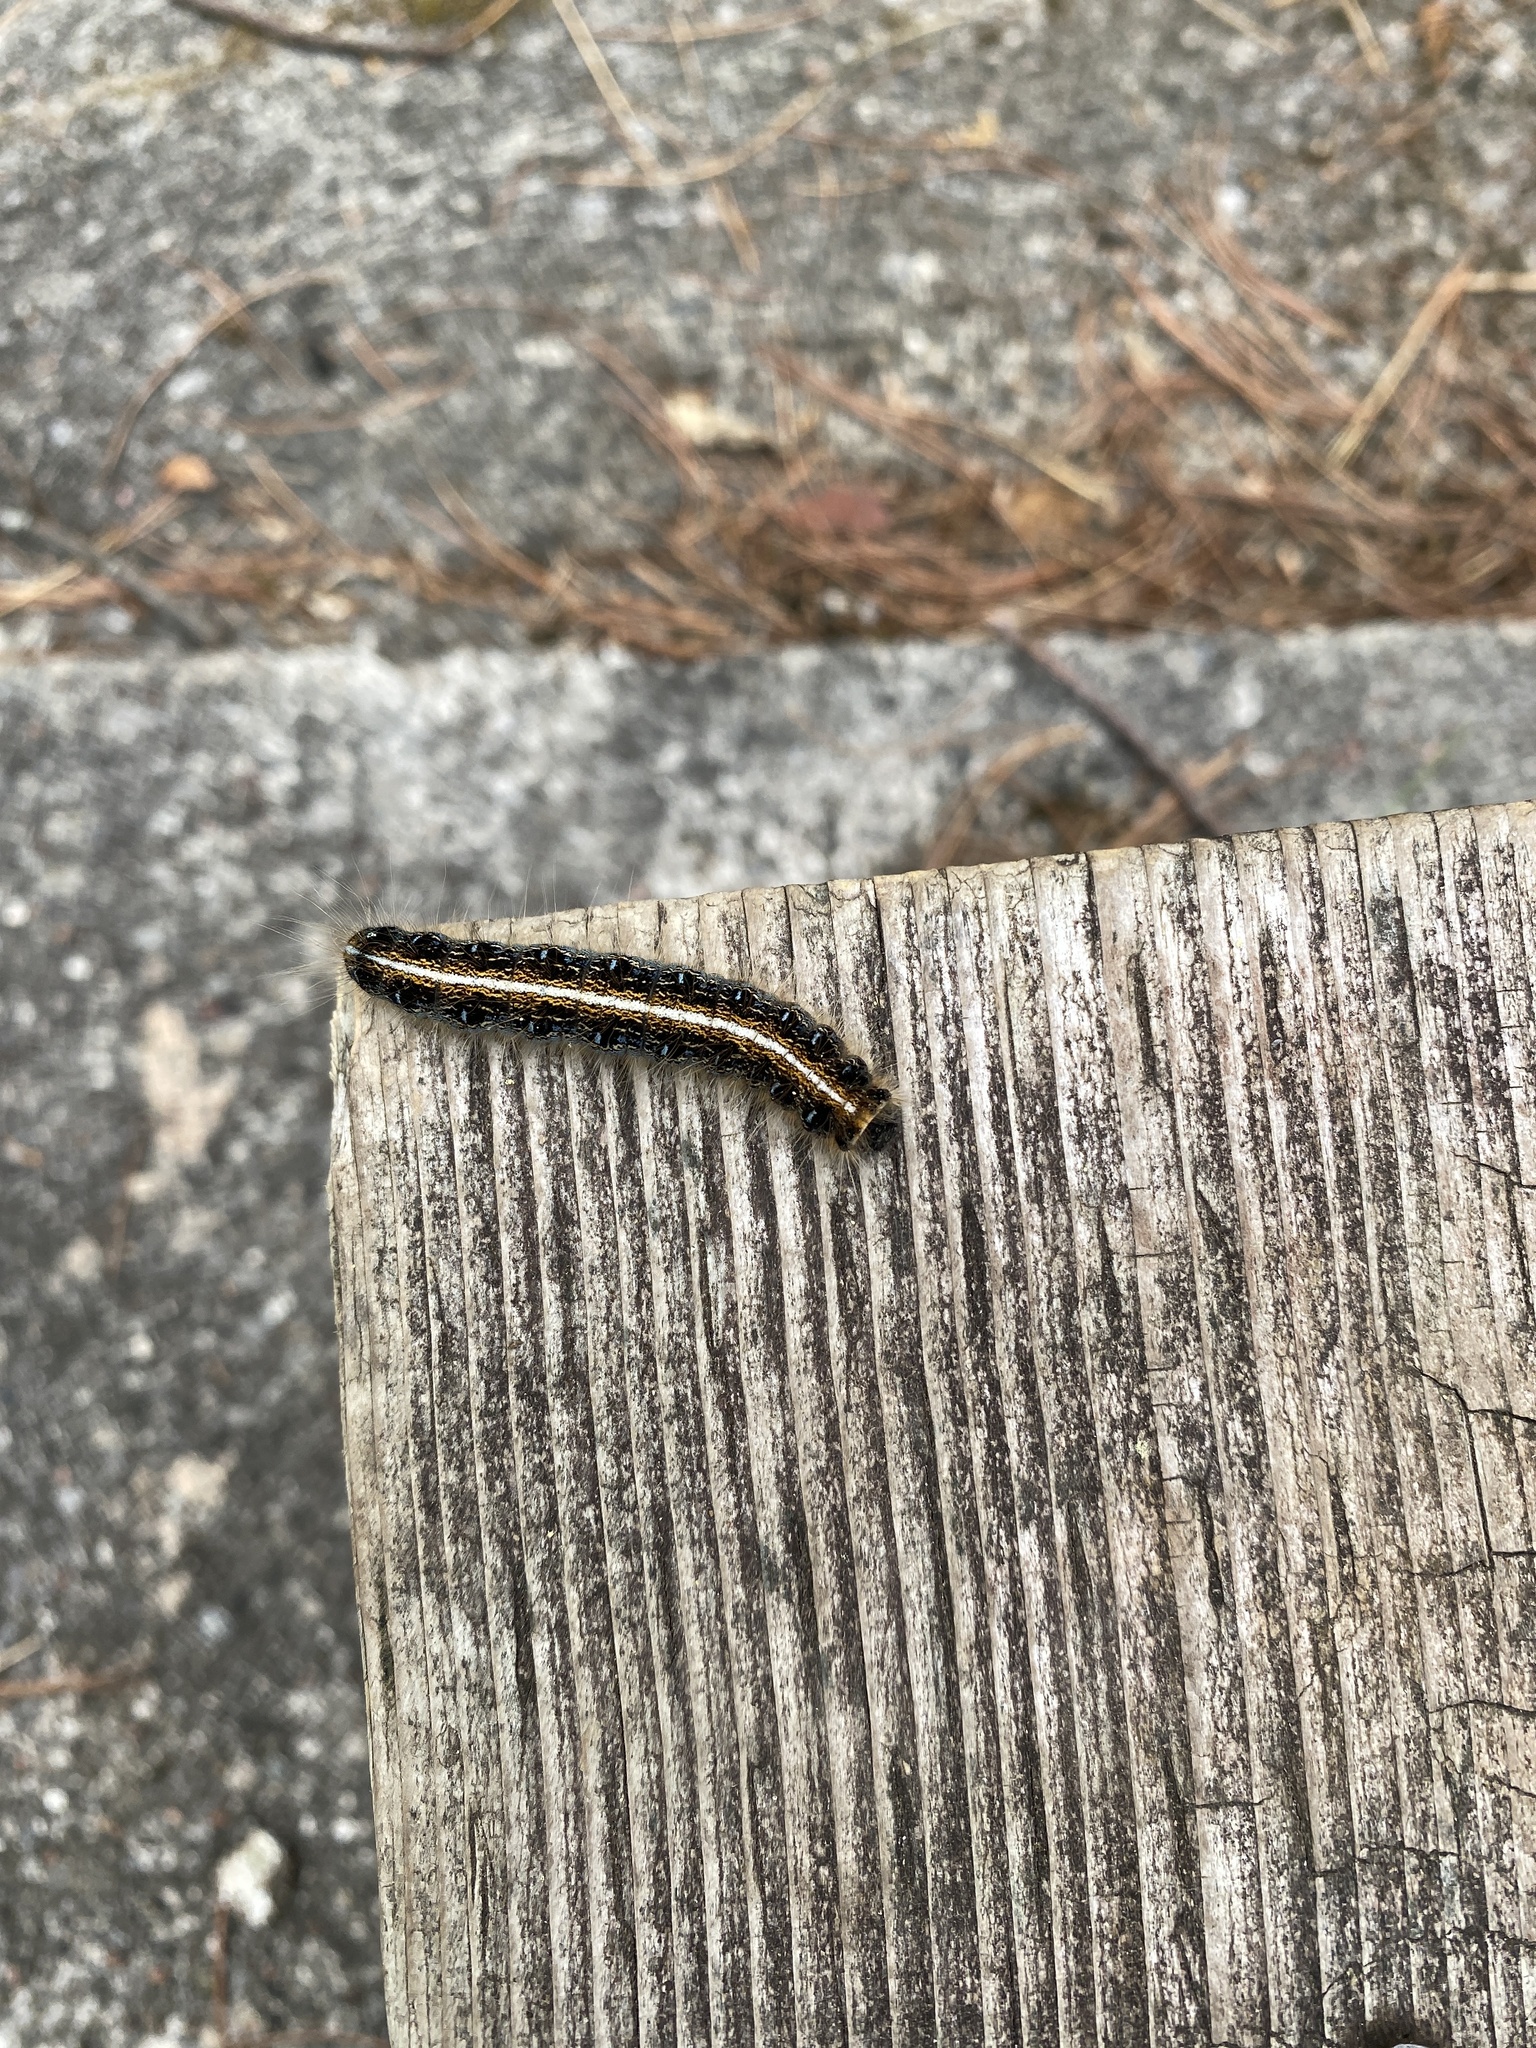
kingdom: Animalia
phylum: Arthropoda
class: Insecta
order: Lepidoptera
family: Lasiocampidae
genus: Malacosoma
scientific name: Malacosoma americana
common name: Eastern tent caterpillar moth
